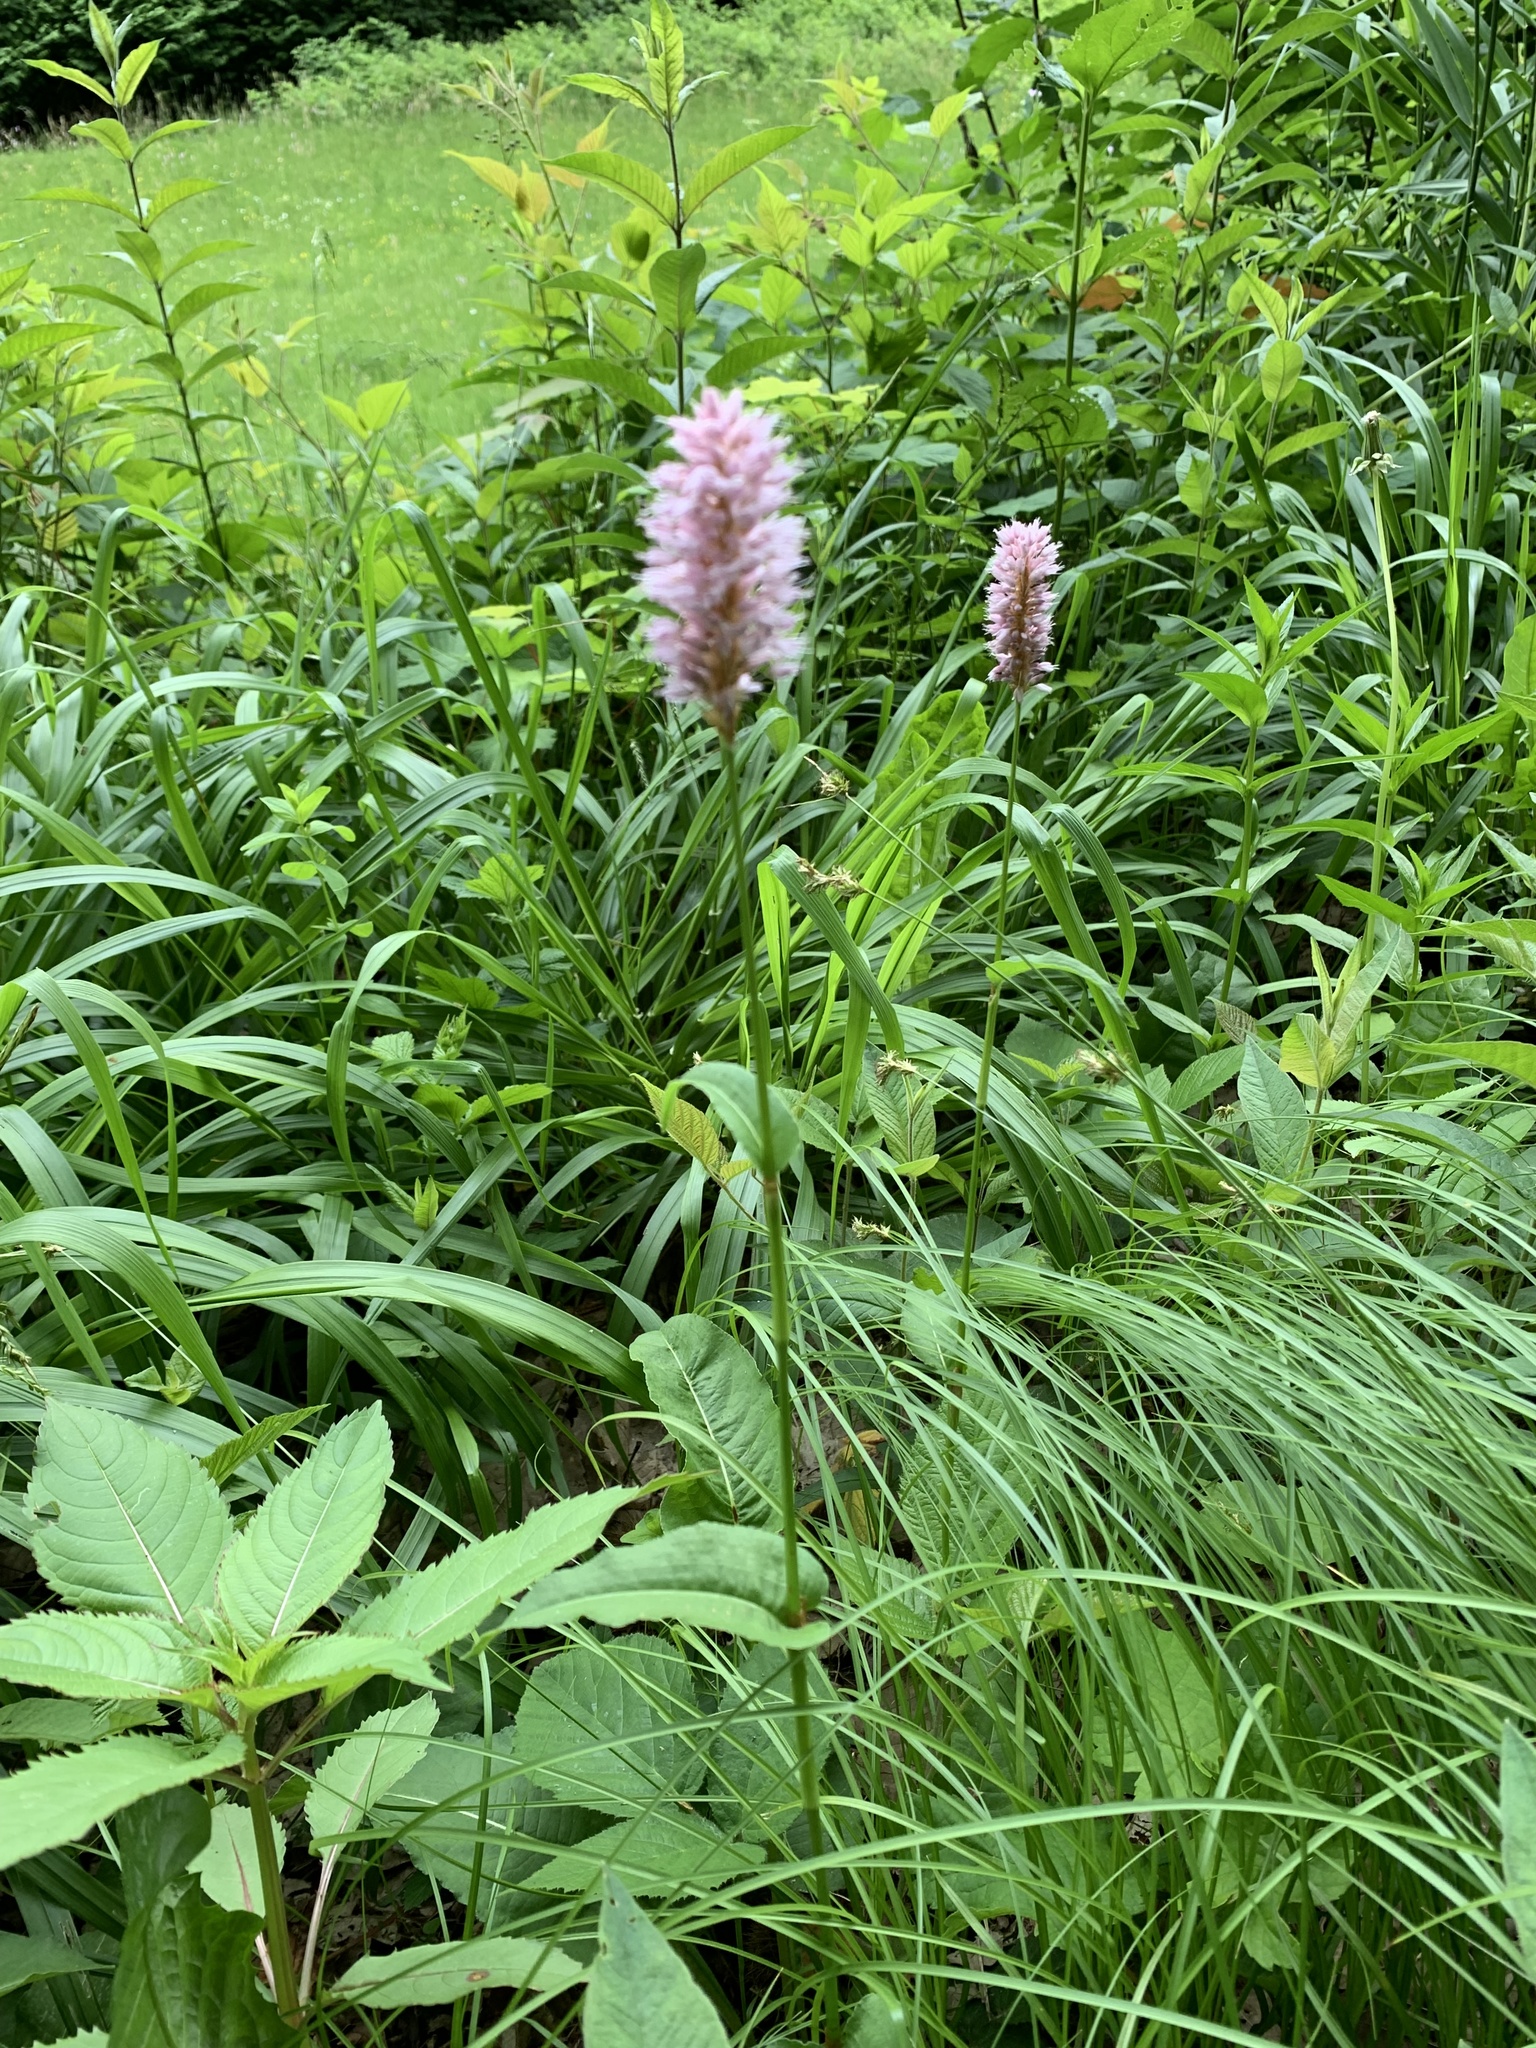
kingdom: Plantae
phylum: Tracheophyta
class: Magnoliopsida
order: Caryophyllales
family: Polygonaceae
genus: Bistorta
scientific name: Bistorta officinalis
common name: Common bistort
